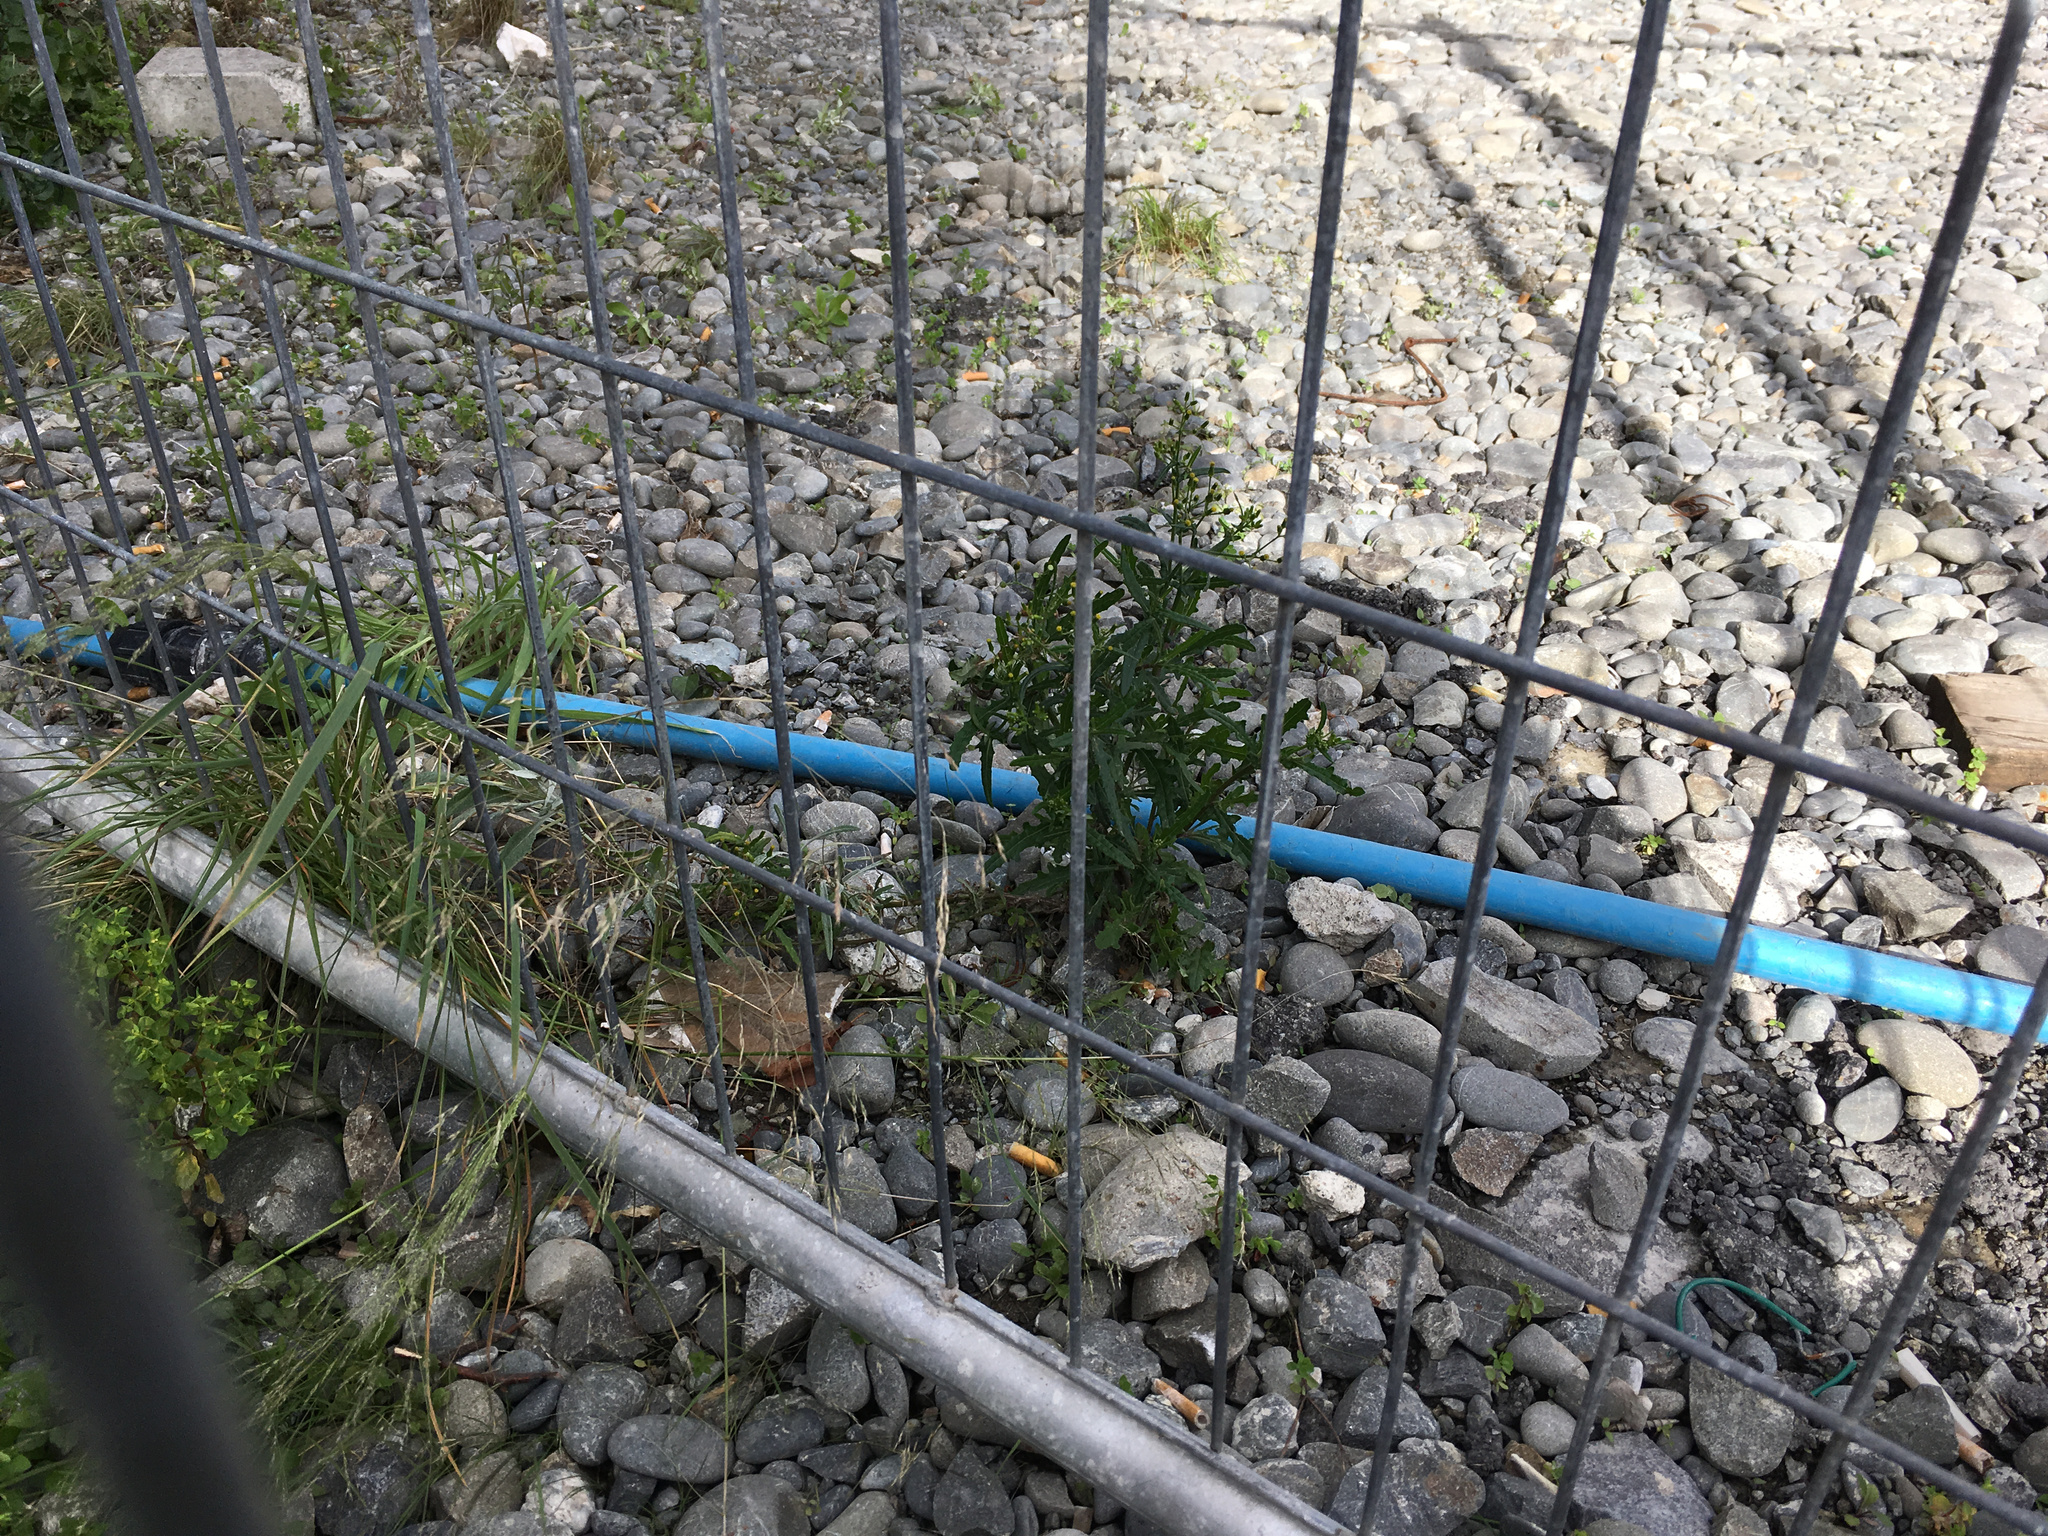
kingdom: Plantae
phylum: Tracheophyta
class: Magnoliopsida
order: Asterales
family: Asteraceae
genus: Senecio
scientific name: Senecio hispidulus
